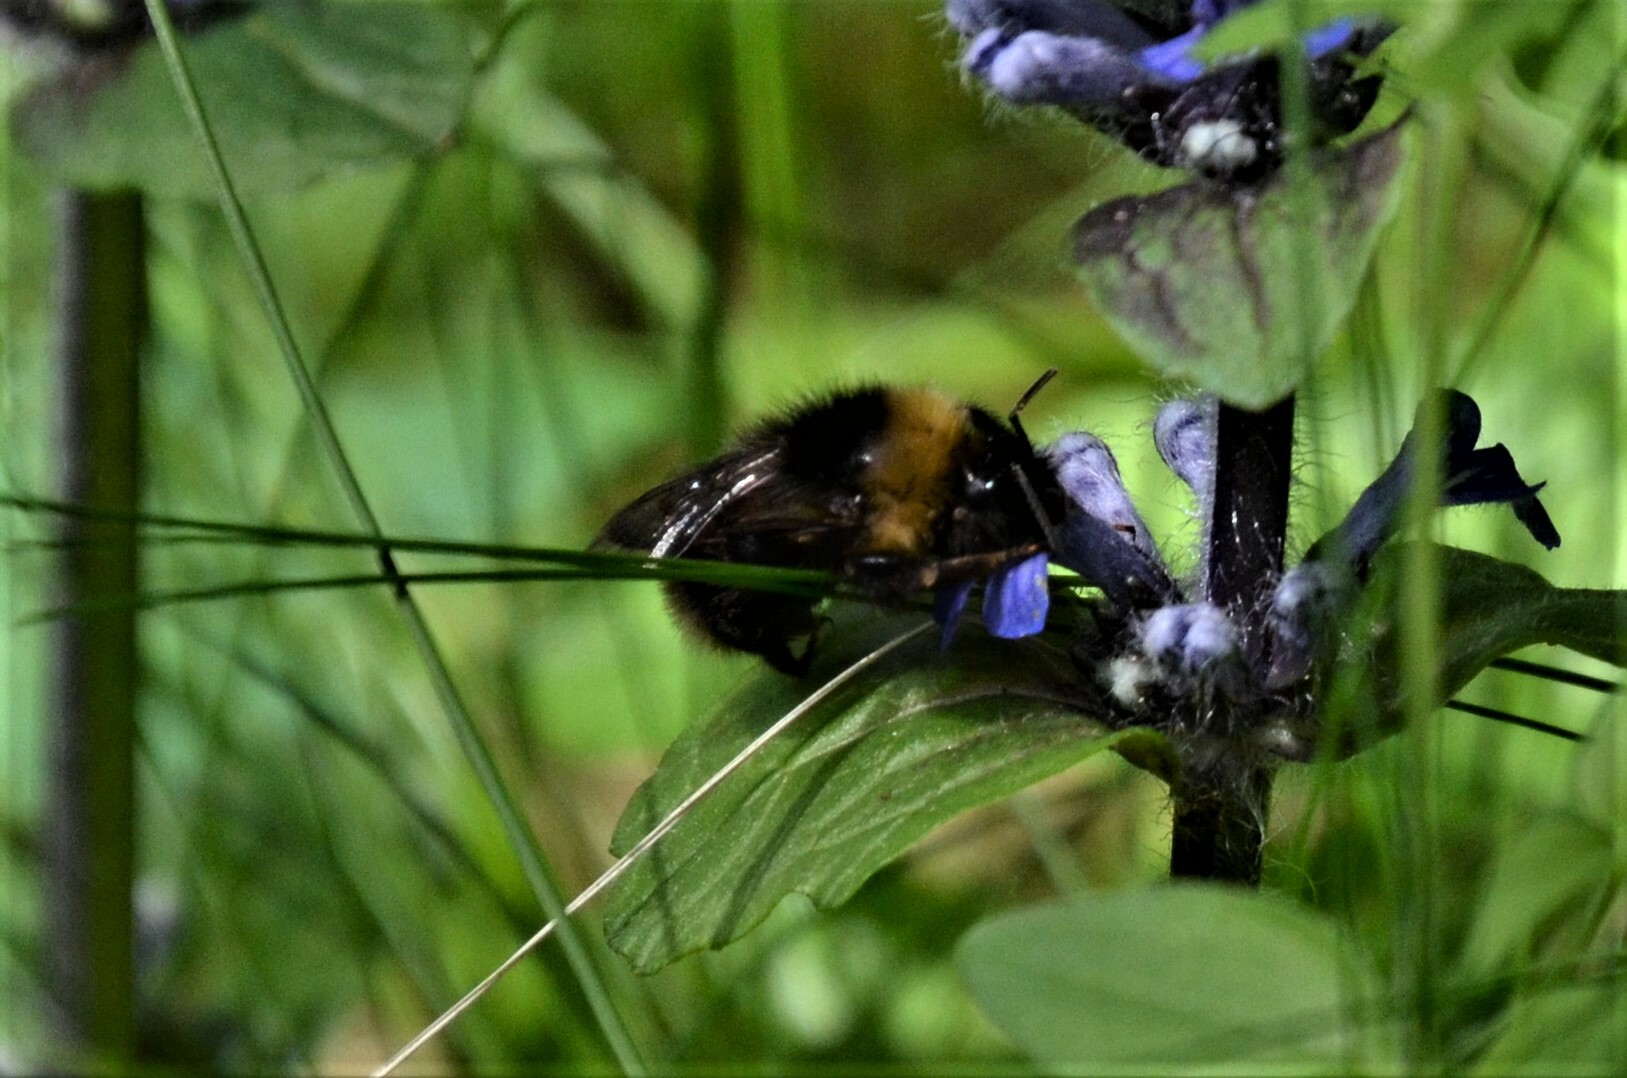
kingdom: Animalia
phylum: Arthropoda
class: Insecta
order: Hymenoptera
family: Apidae
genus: Bombus
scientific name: Bombus bohemicus
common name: Gypsy cuckoo bee
